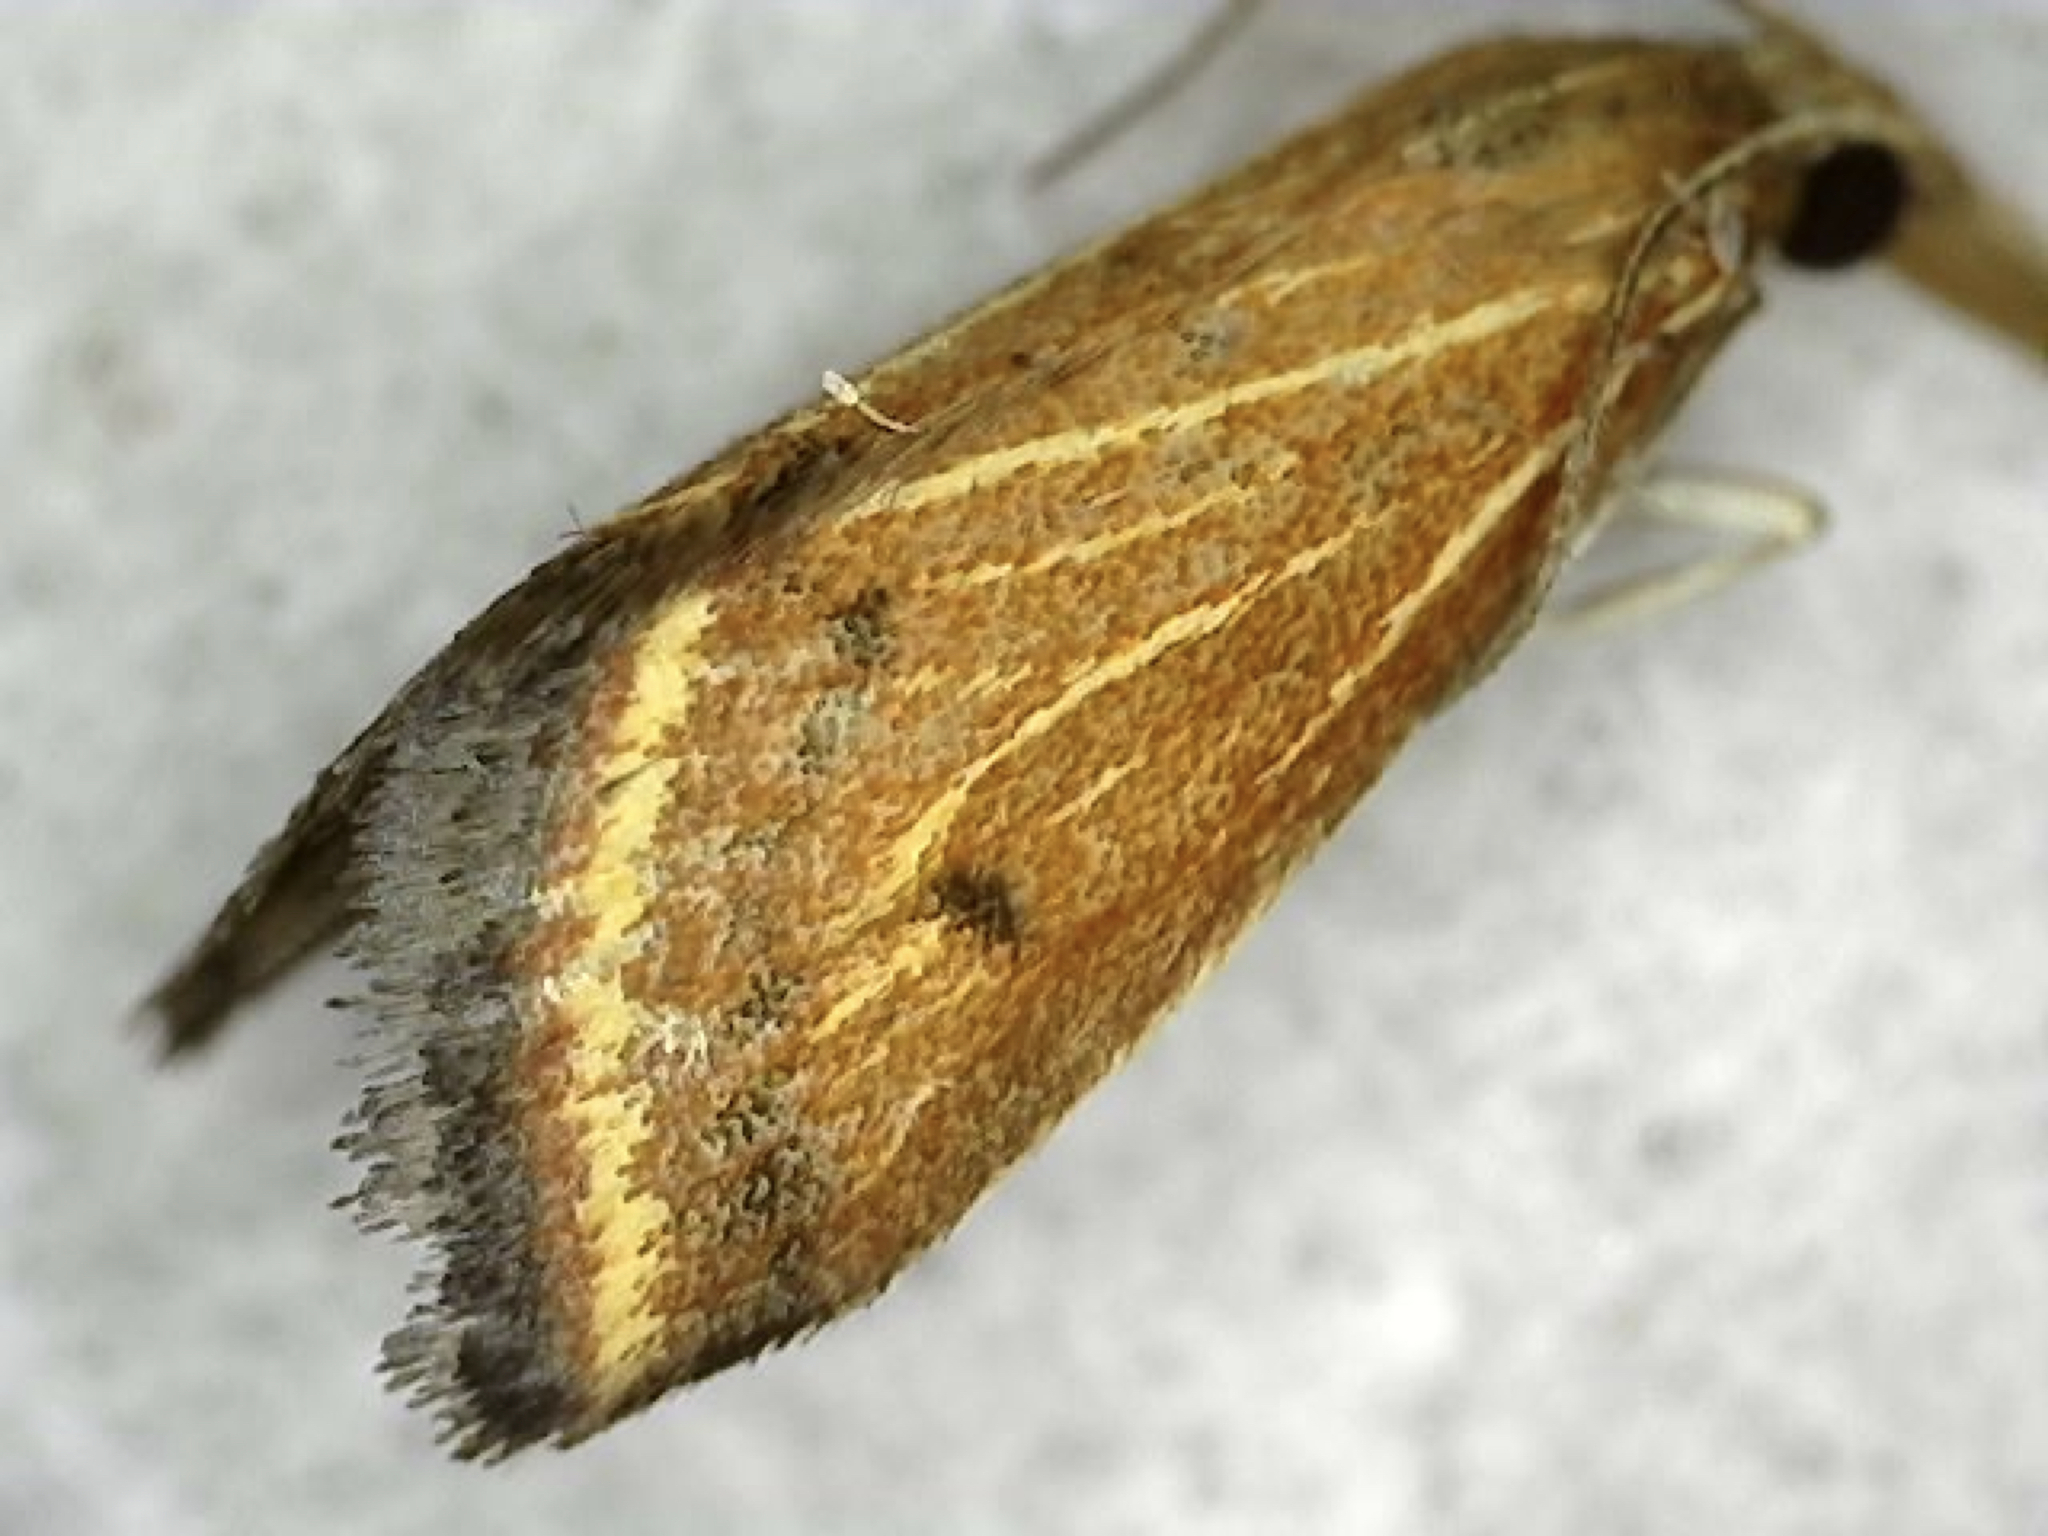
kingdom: Animalia
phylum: Arthropoda
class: Insecta
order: Lepidoptera
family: Crambidae
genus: Microtheoris
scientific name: Microtheoris ophionalis
